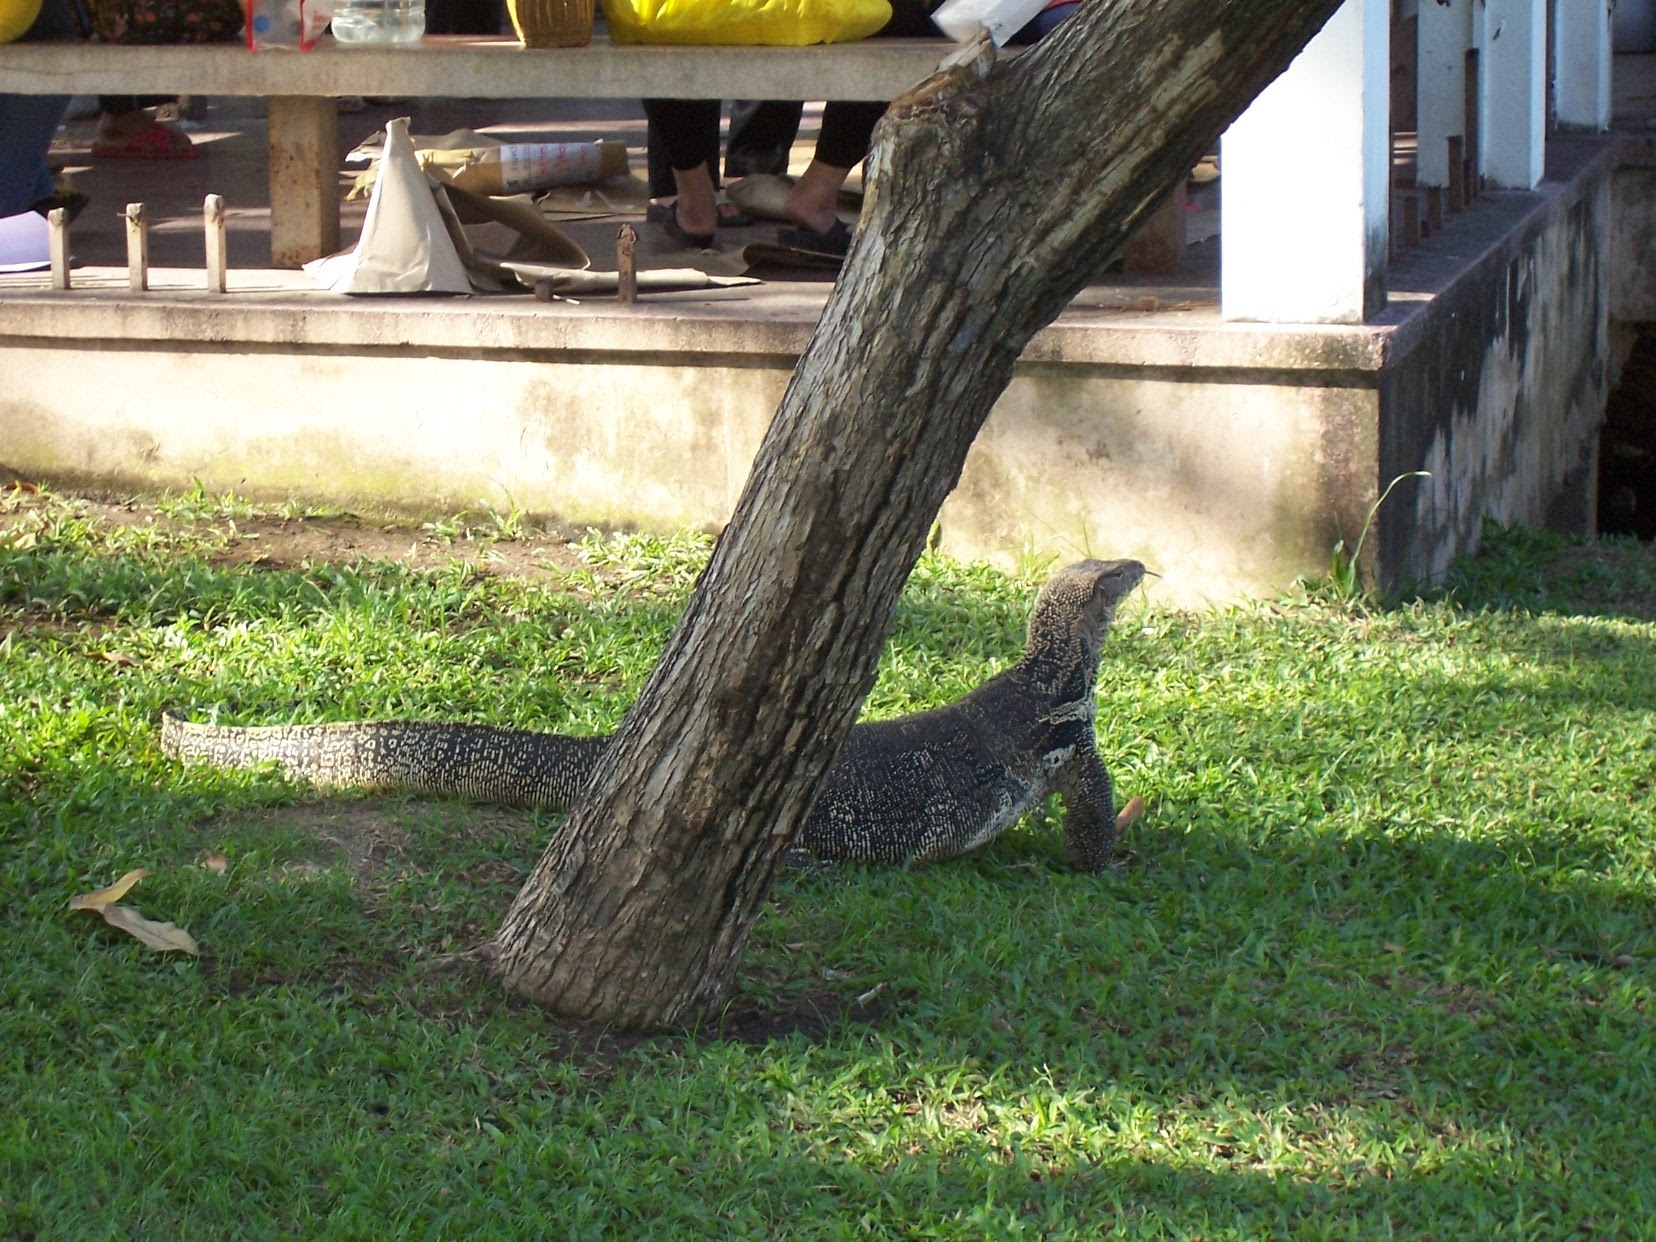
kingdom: Animalia
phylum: Chordata
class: Squamata
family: Varanidae
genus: Varanus
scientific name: Varanus salvator
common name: Common water monitor
